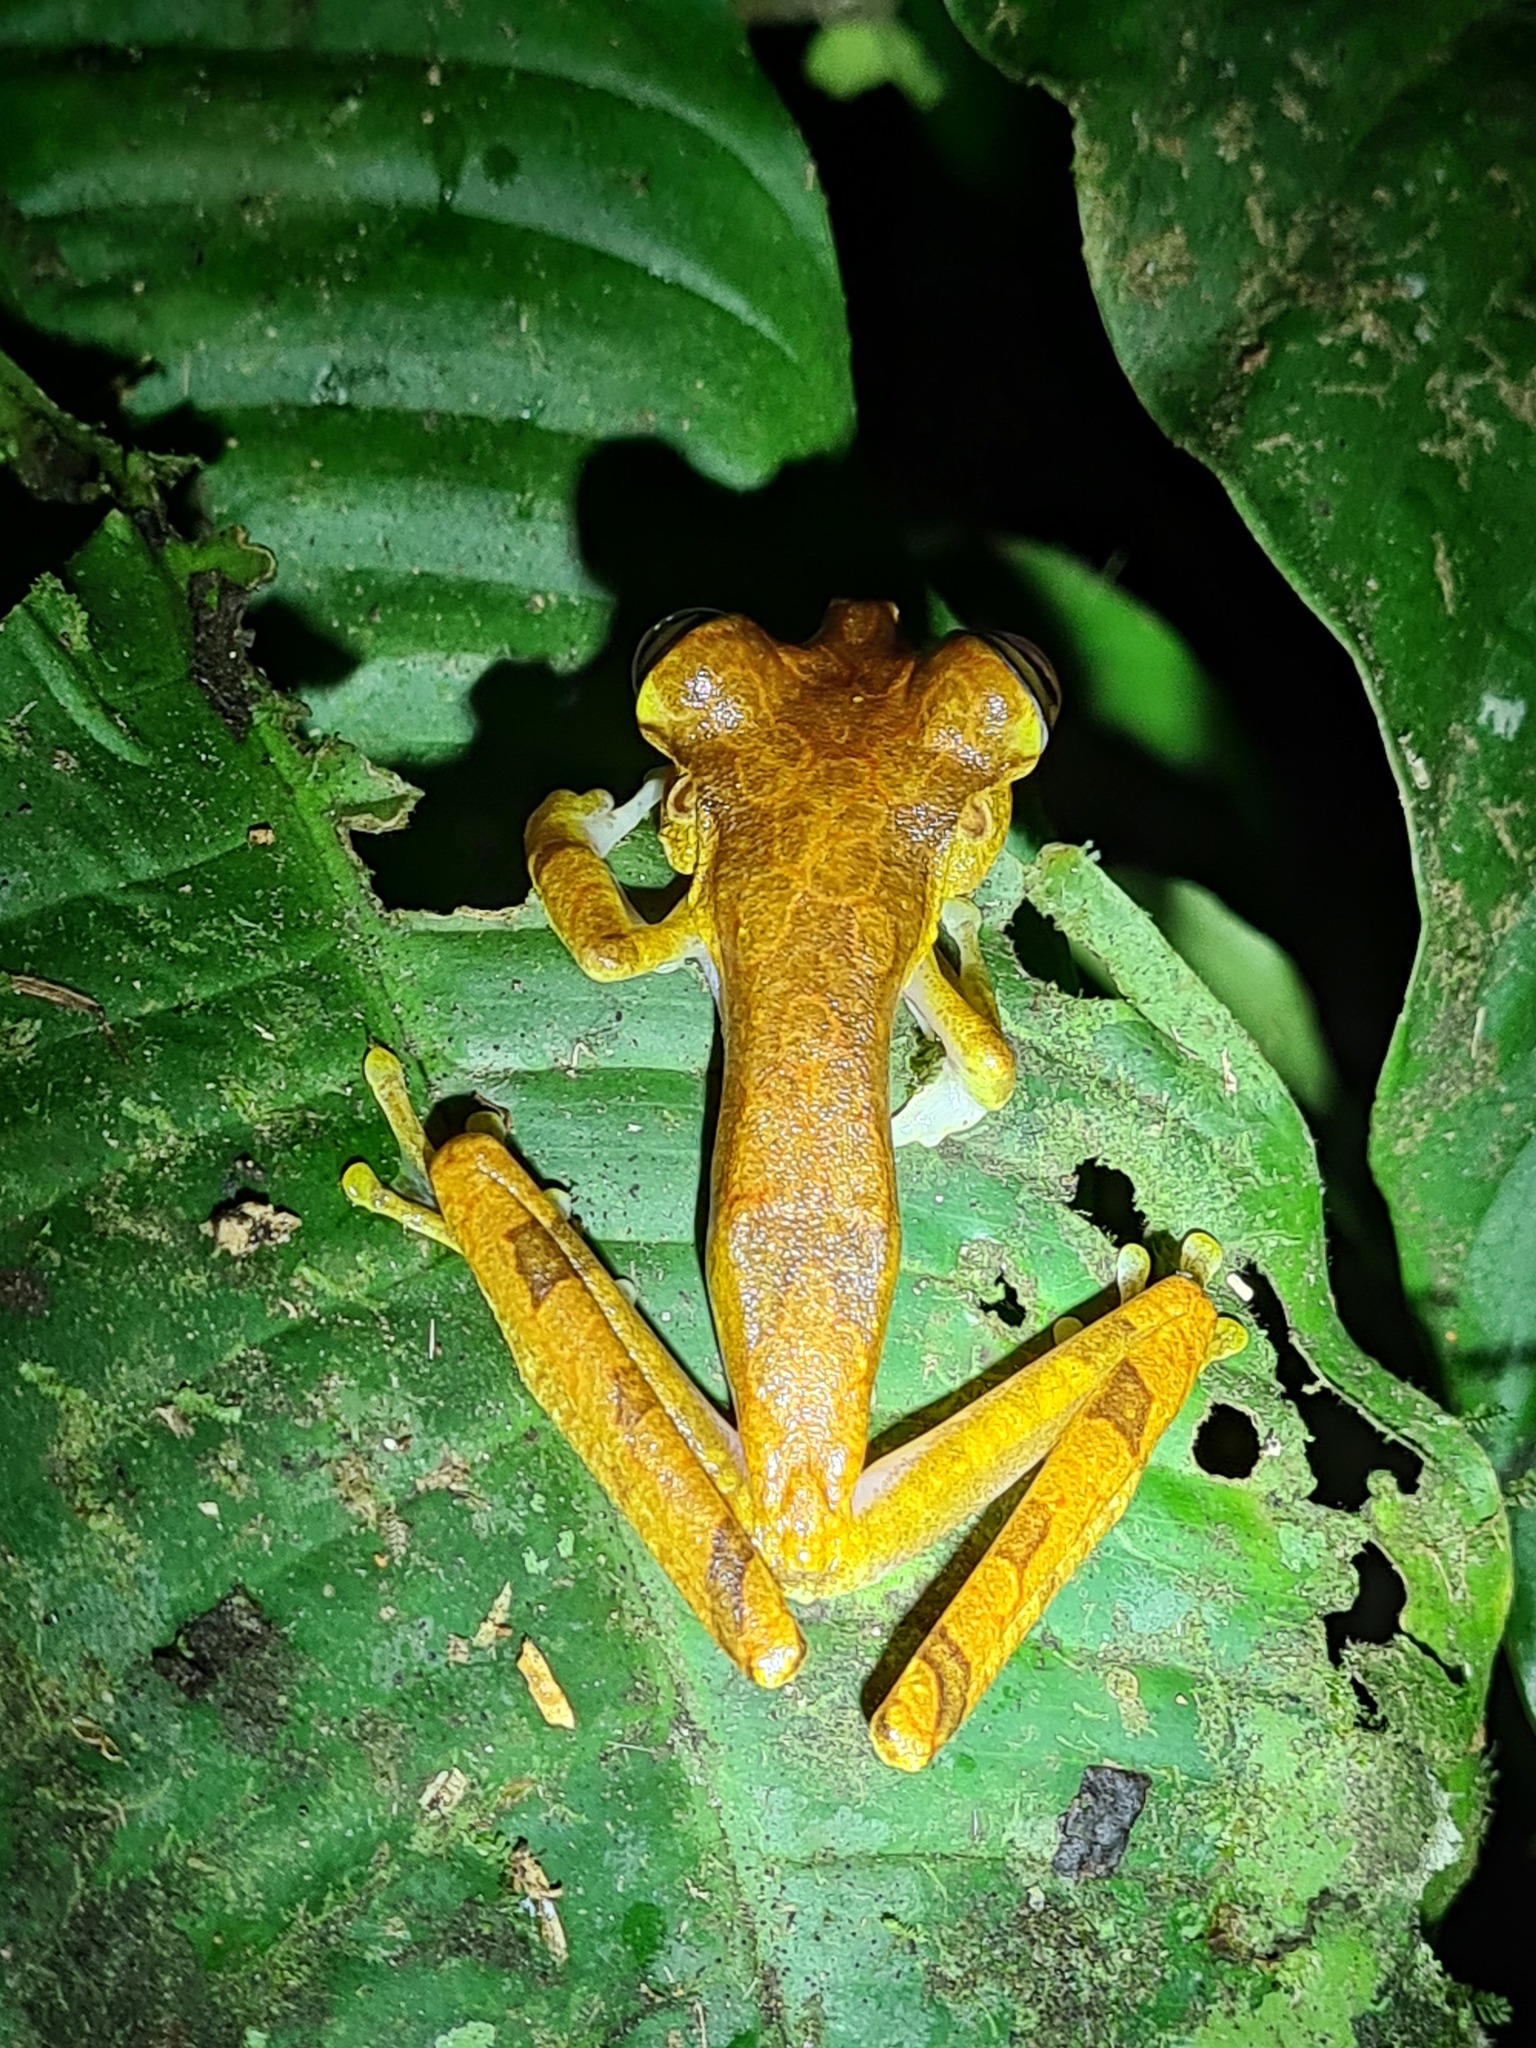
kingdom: Animalia
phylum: Chordata
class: Amphibia
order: Anura
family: Hylidae
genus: Boana
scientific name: Boana picturata
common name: Imbabura treefrog
